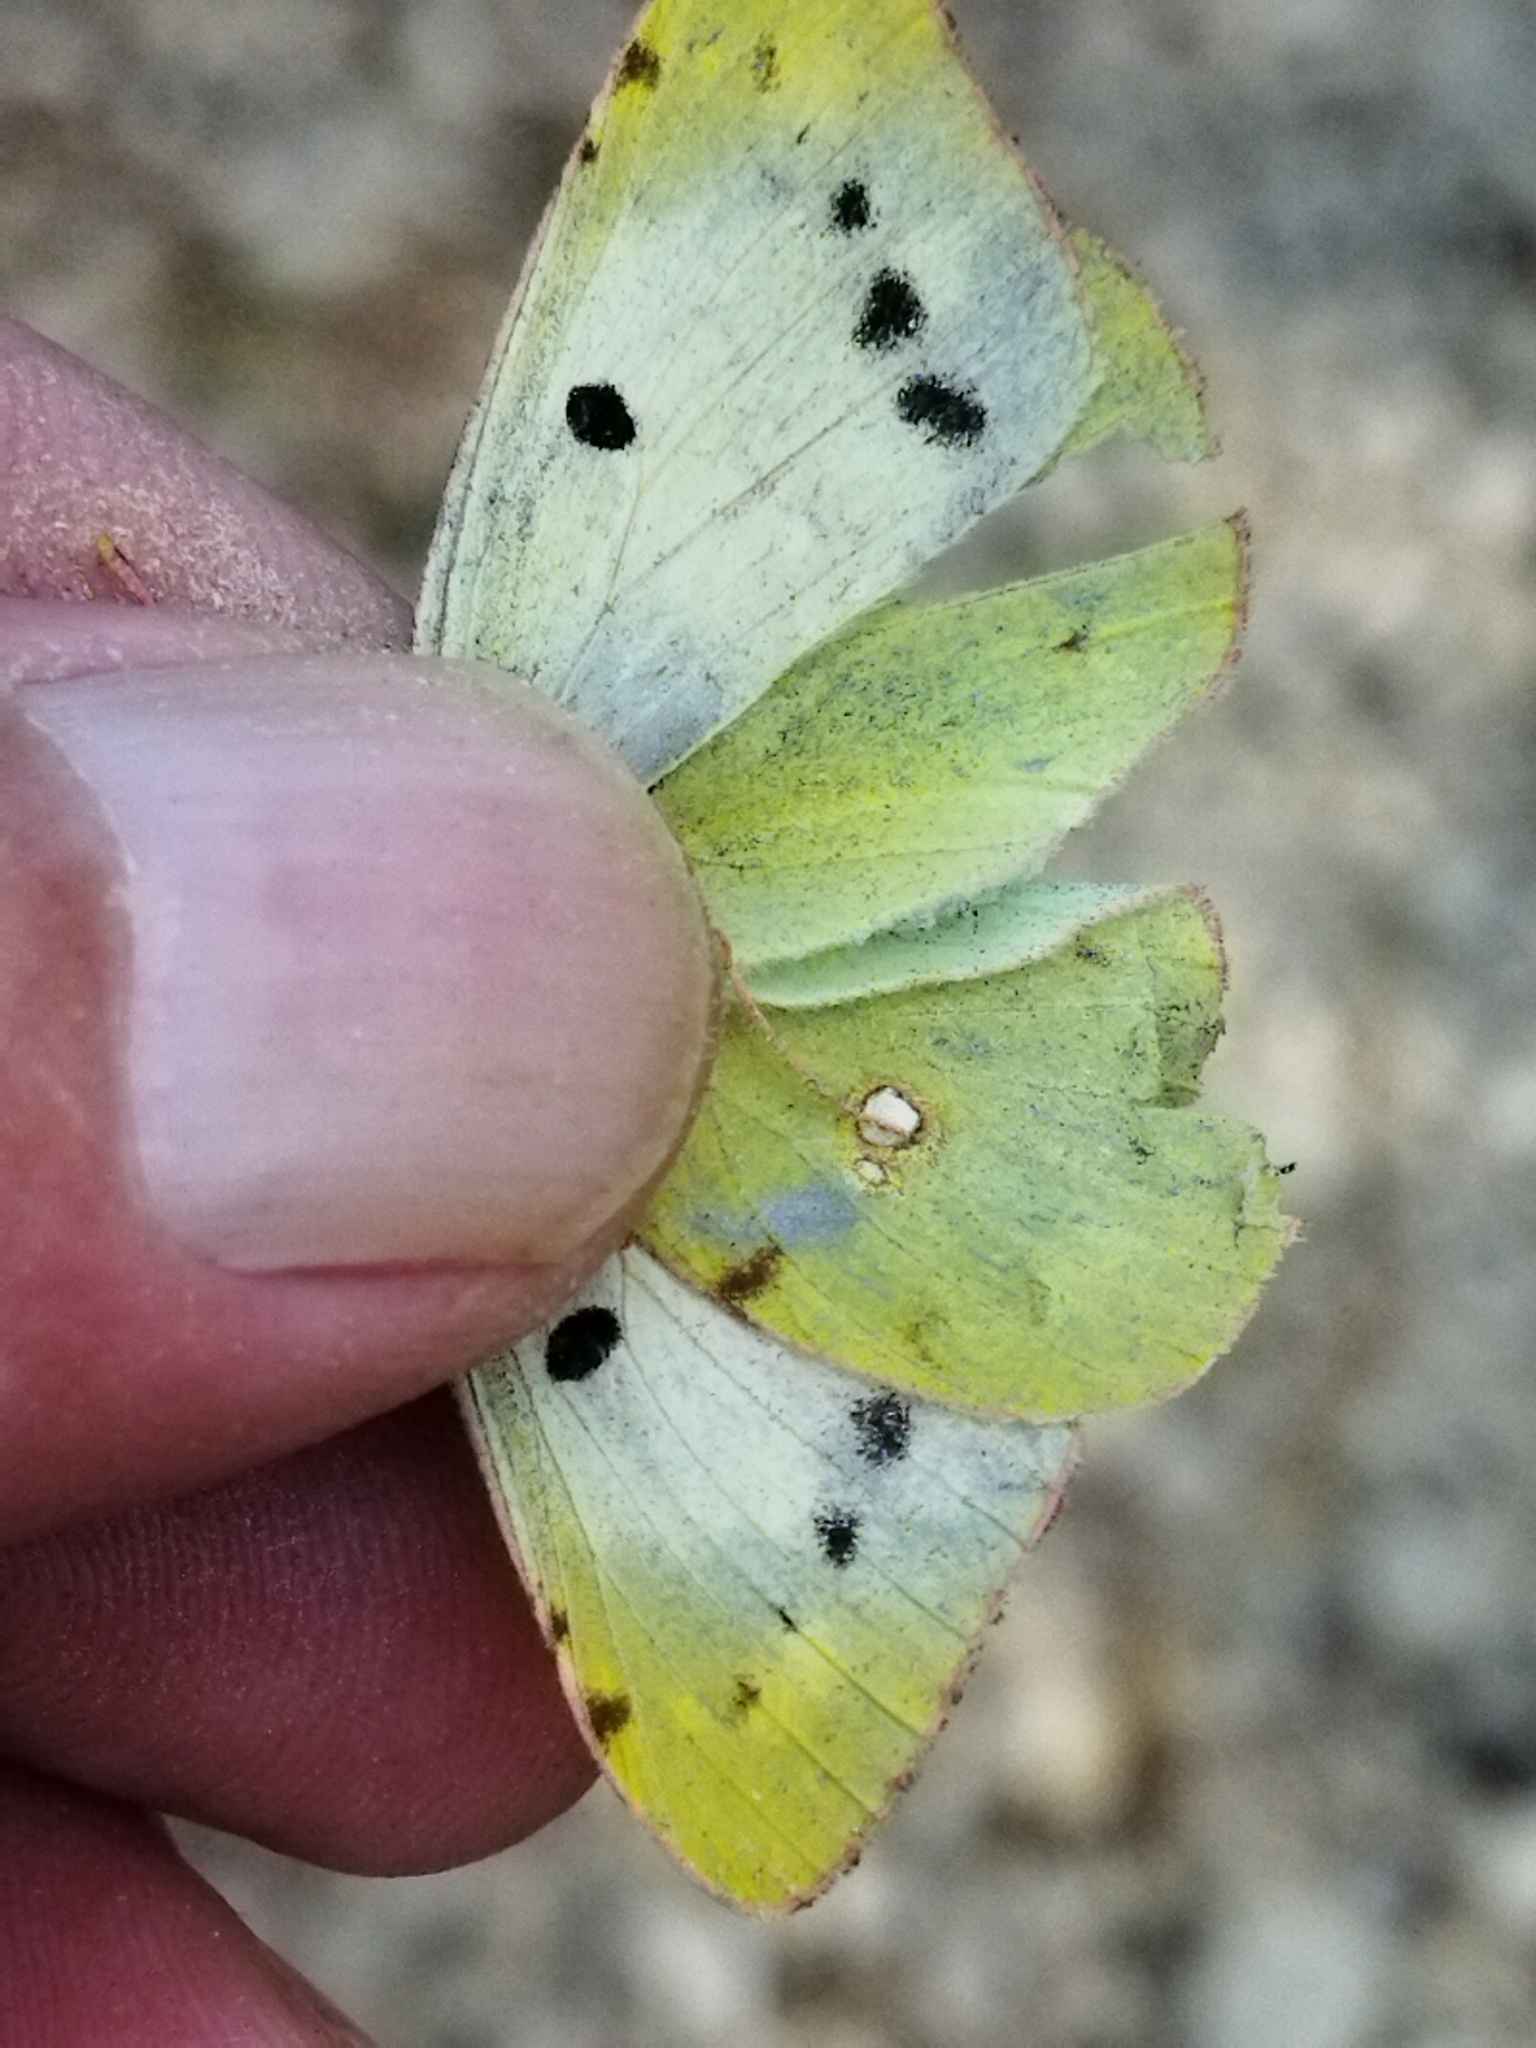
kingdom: Animalia
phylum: Arthropoda
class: Insecta
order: Lepidoptera
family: Pieridae
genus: Colias
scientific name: Colias croceus
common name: Clouded yellow
